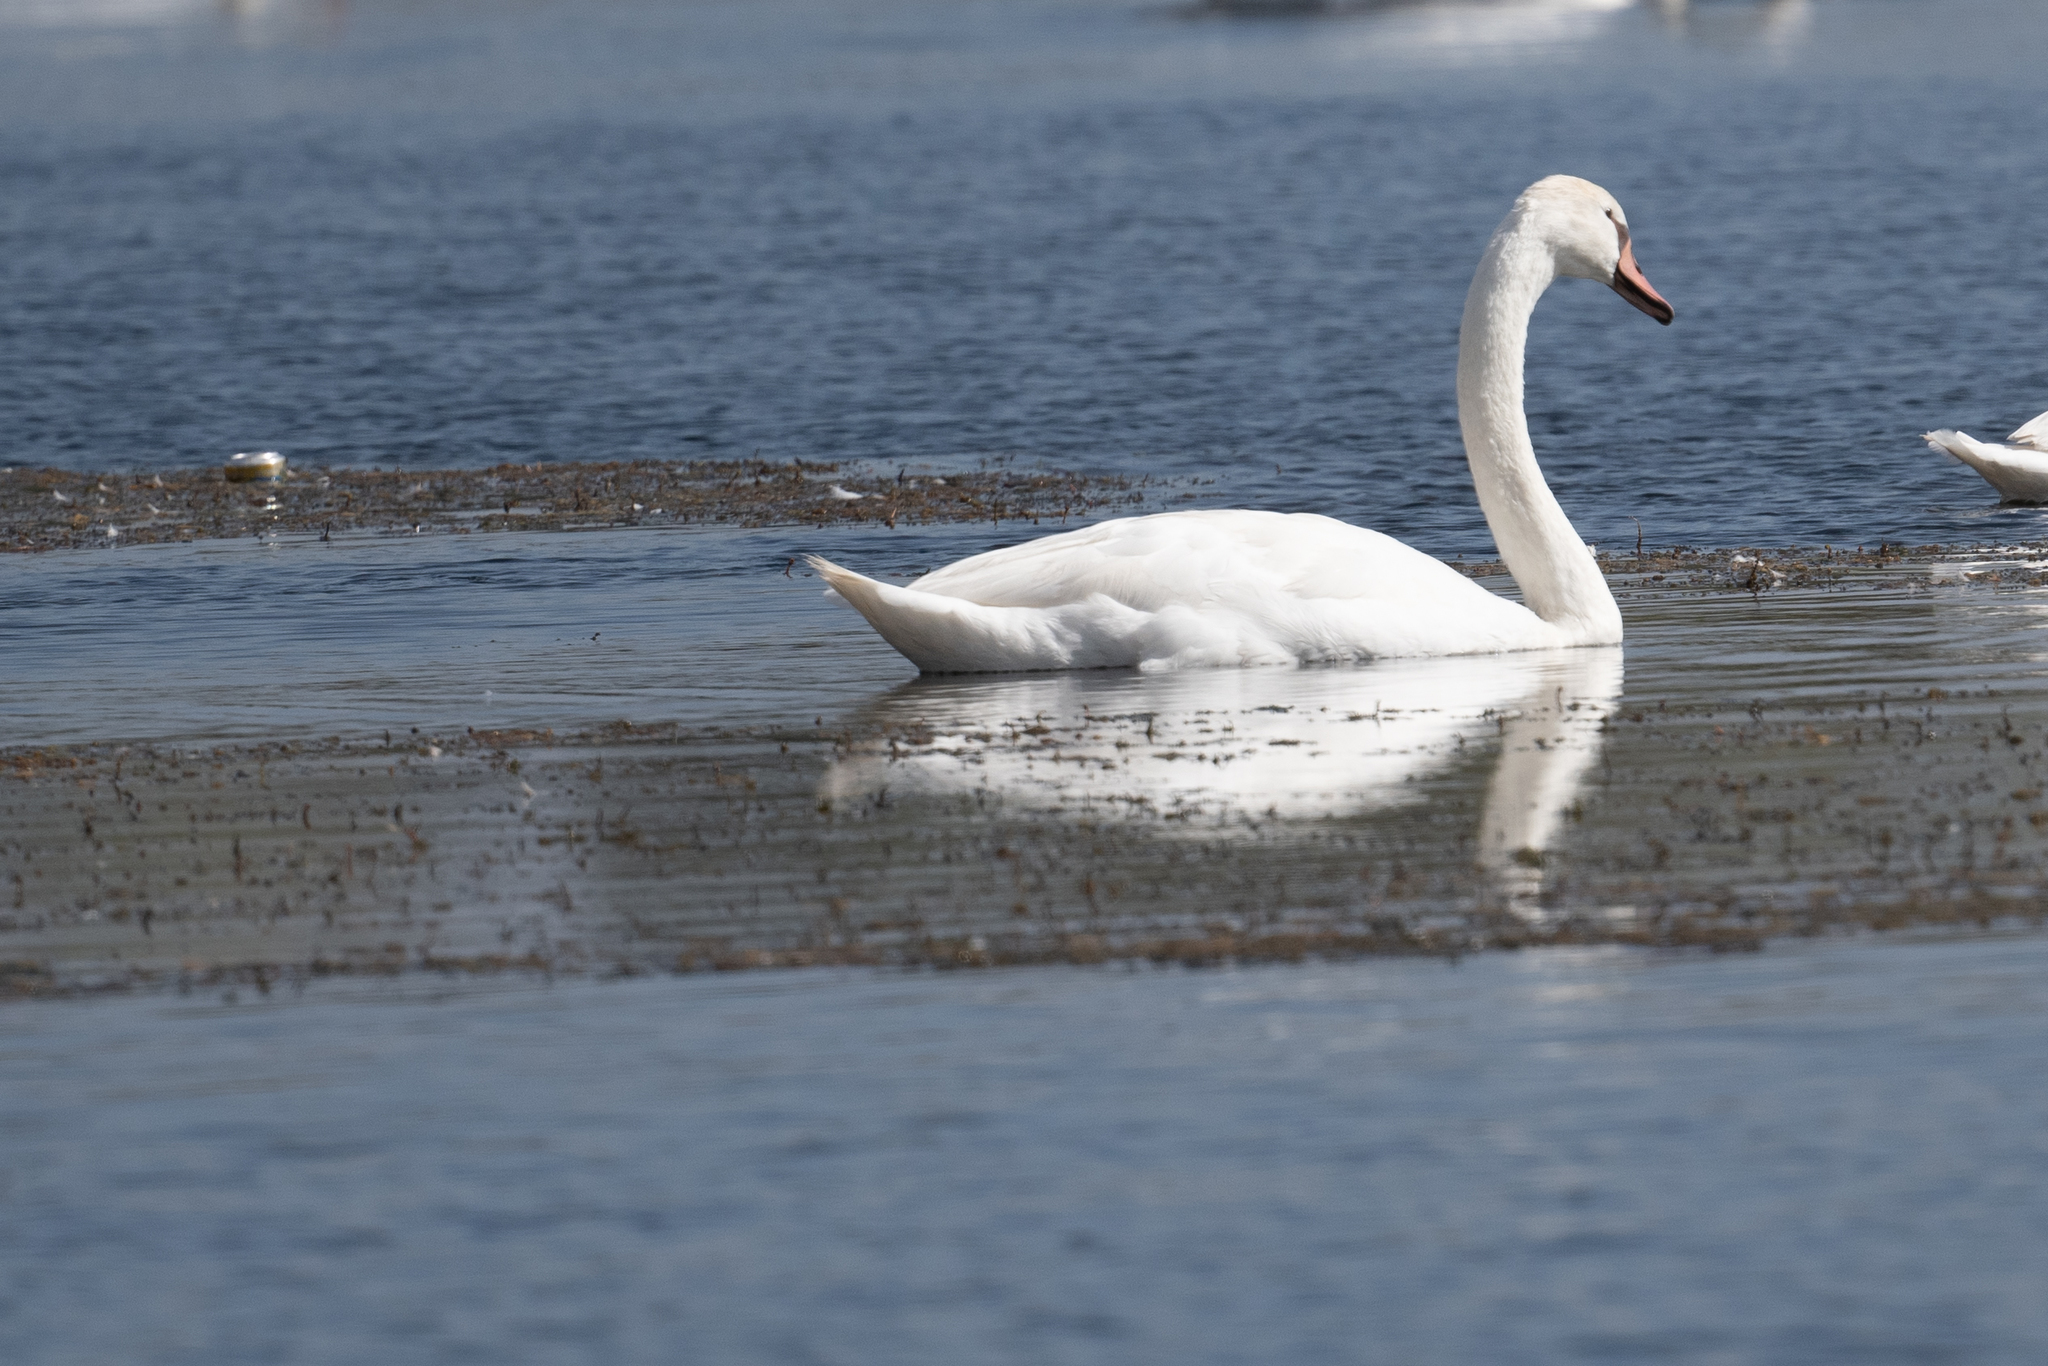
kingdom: Animalia
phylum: Chordata
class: Aves
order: Anseriformes
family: Anatidae
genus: Cygnus
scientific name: Cygnus olor
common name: Mute swan
